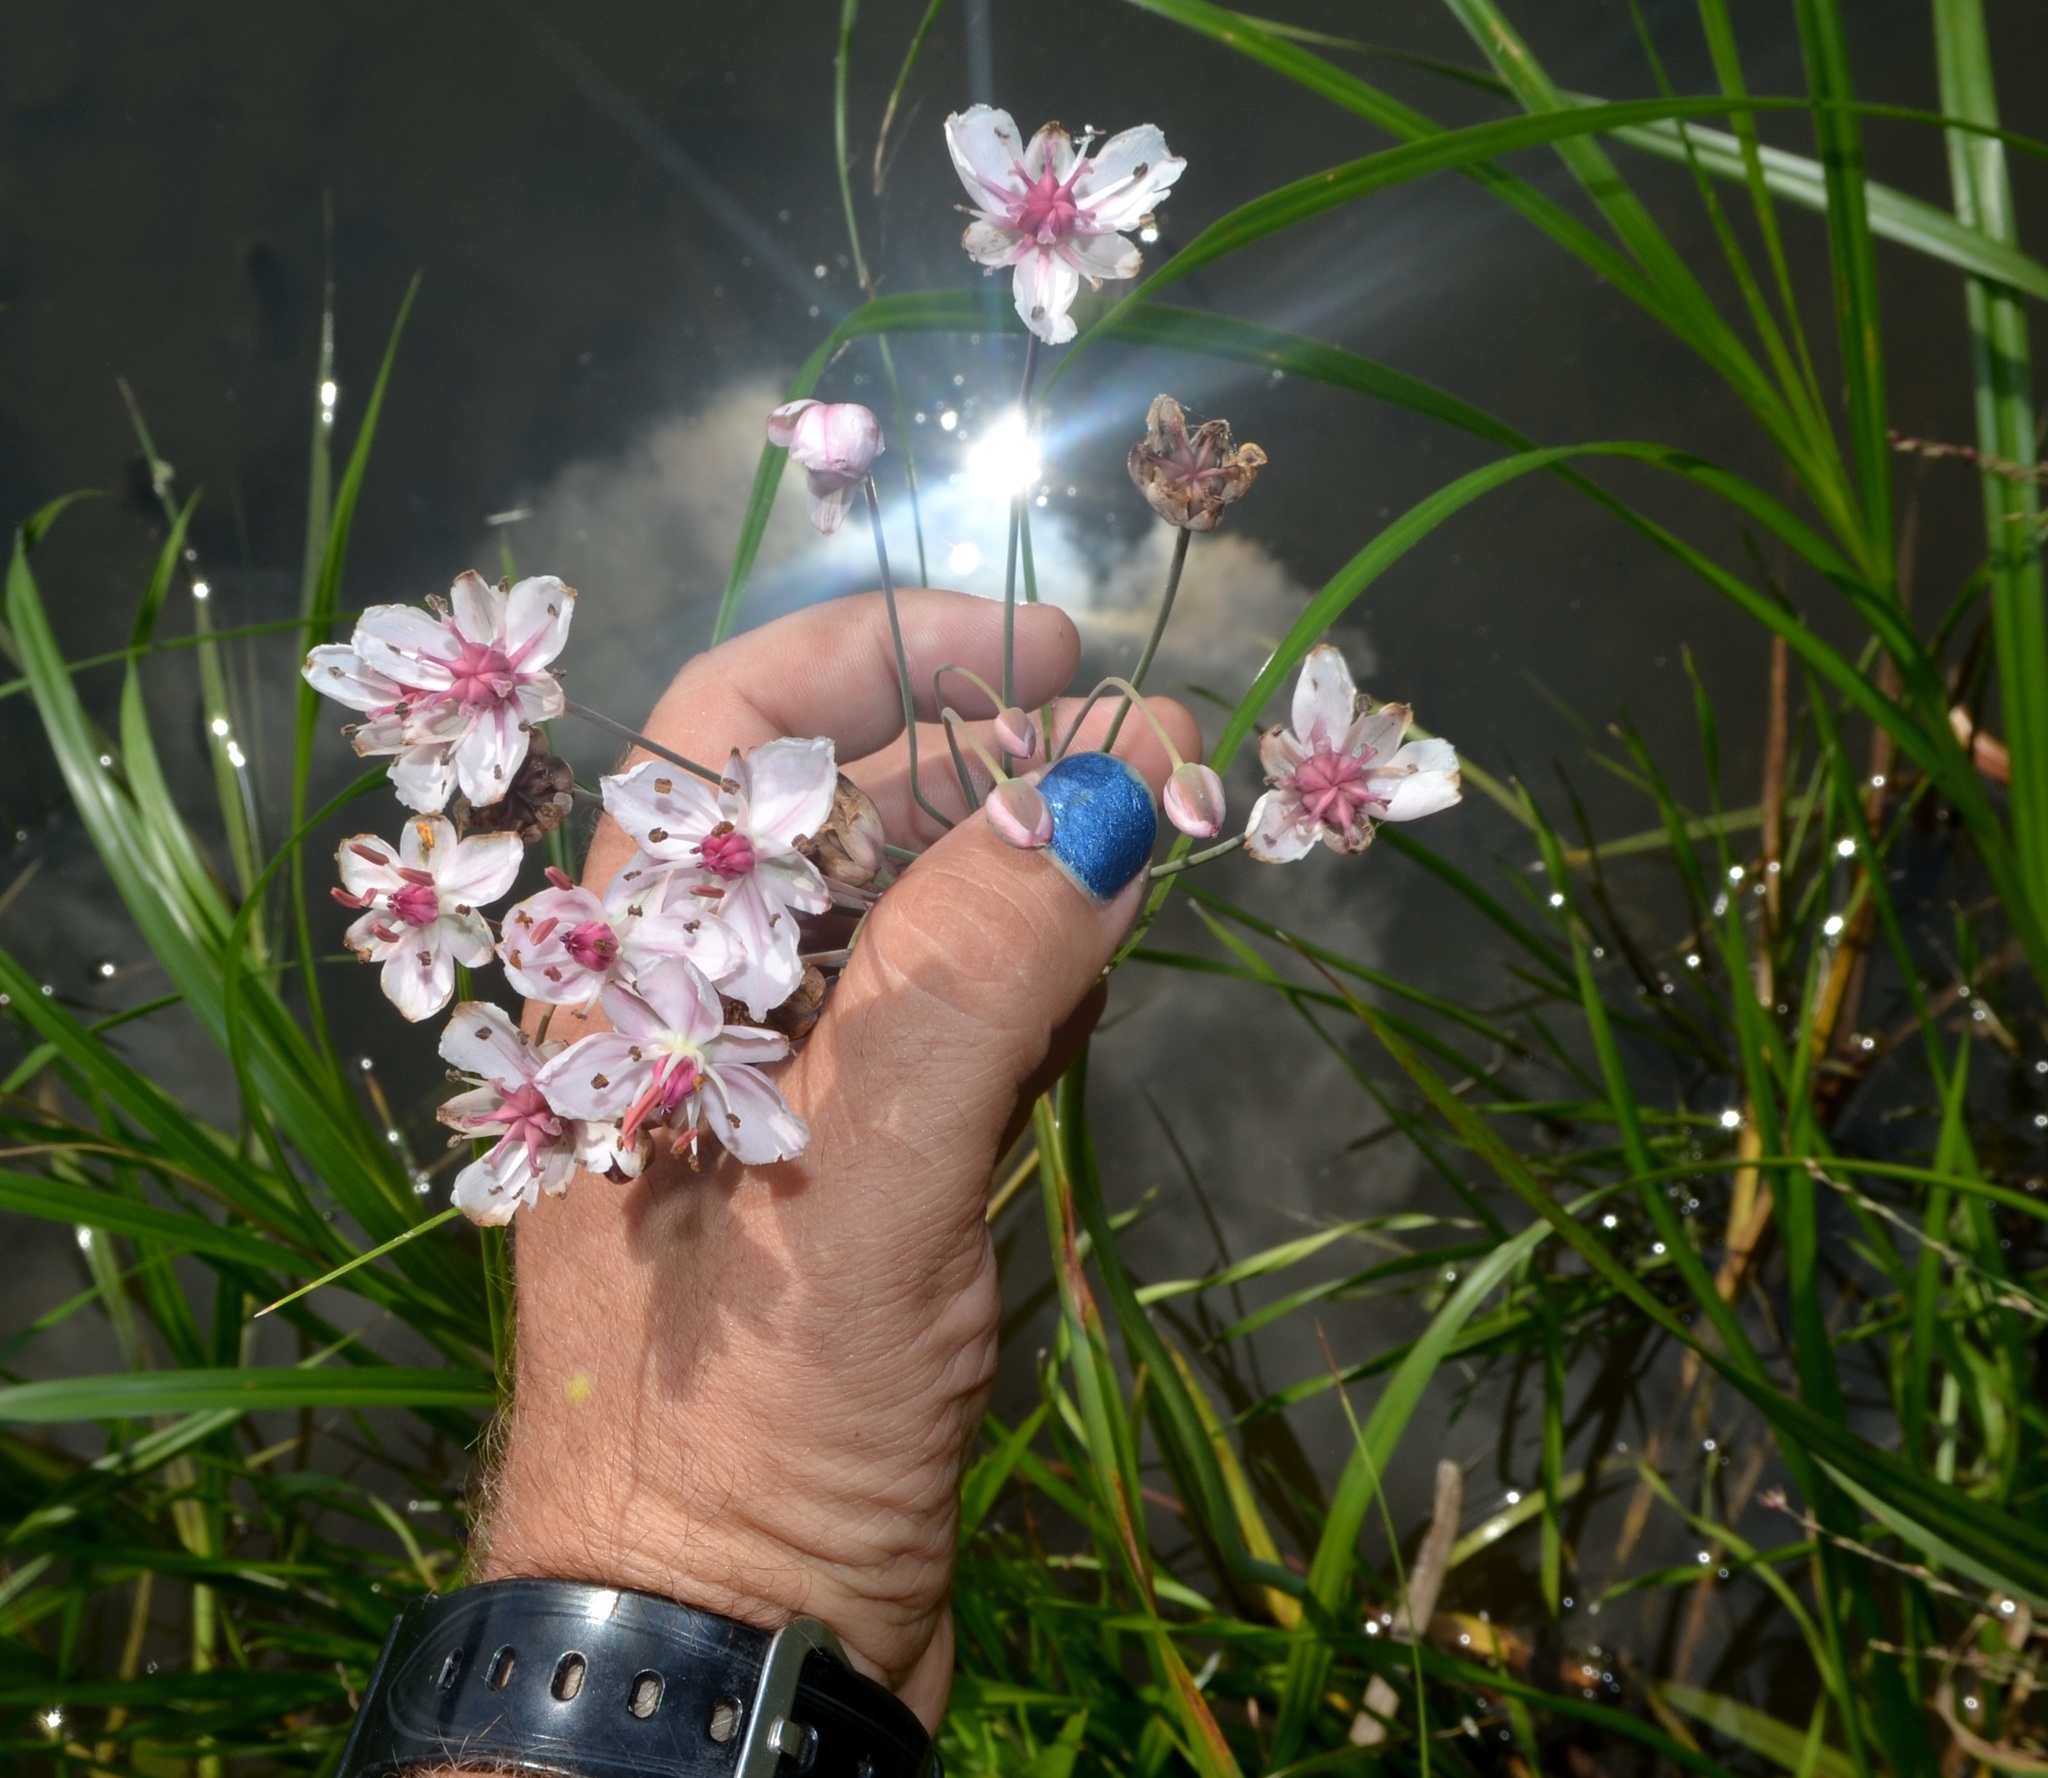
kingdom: Plantae
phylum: Tracheophyta
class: Liliopsida
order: Alismatales
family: Butomaceae
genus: Butomus
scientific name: Butomus umbellatus
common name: Flowering-rush
